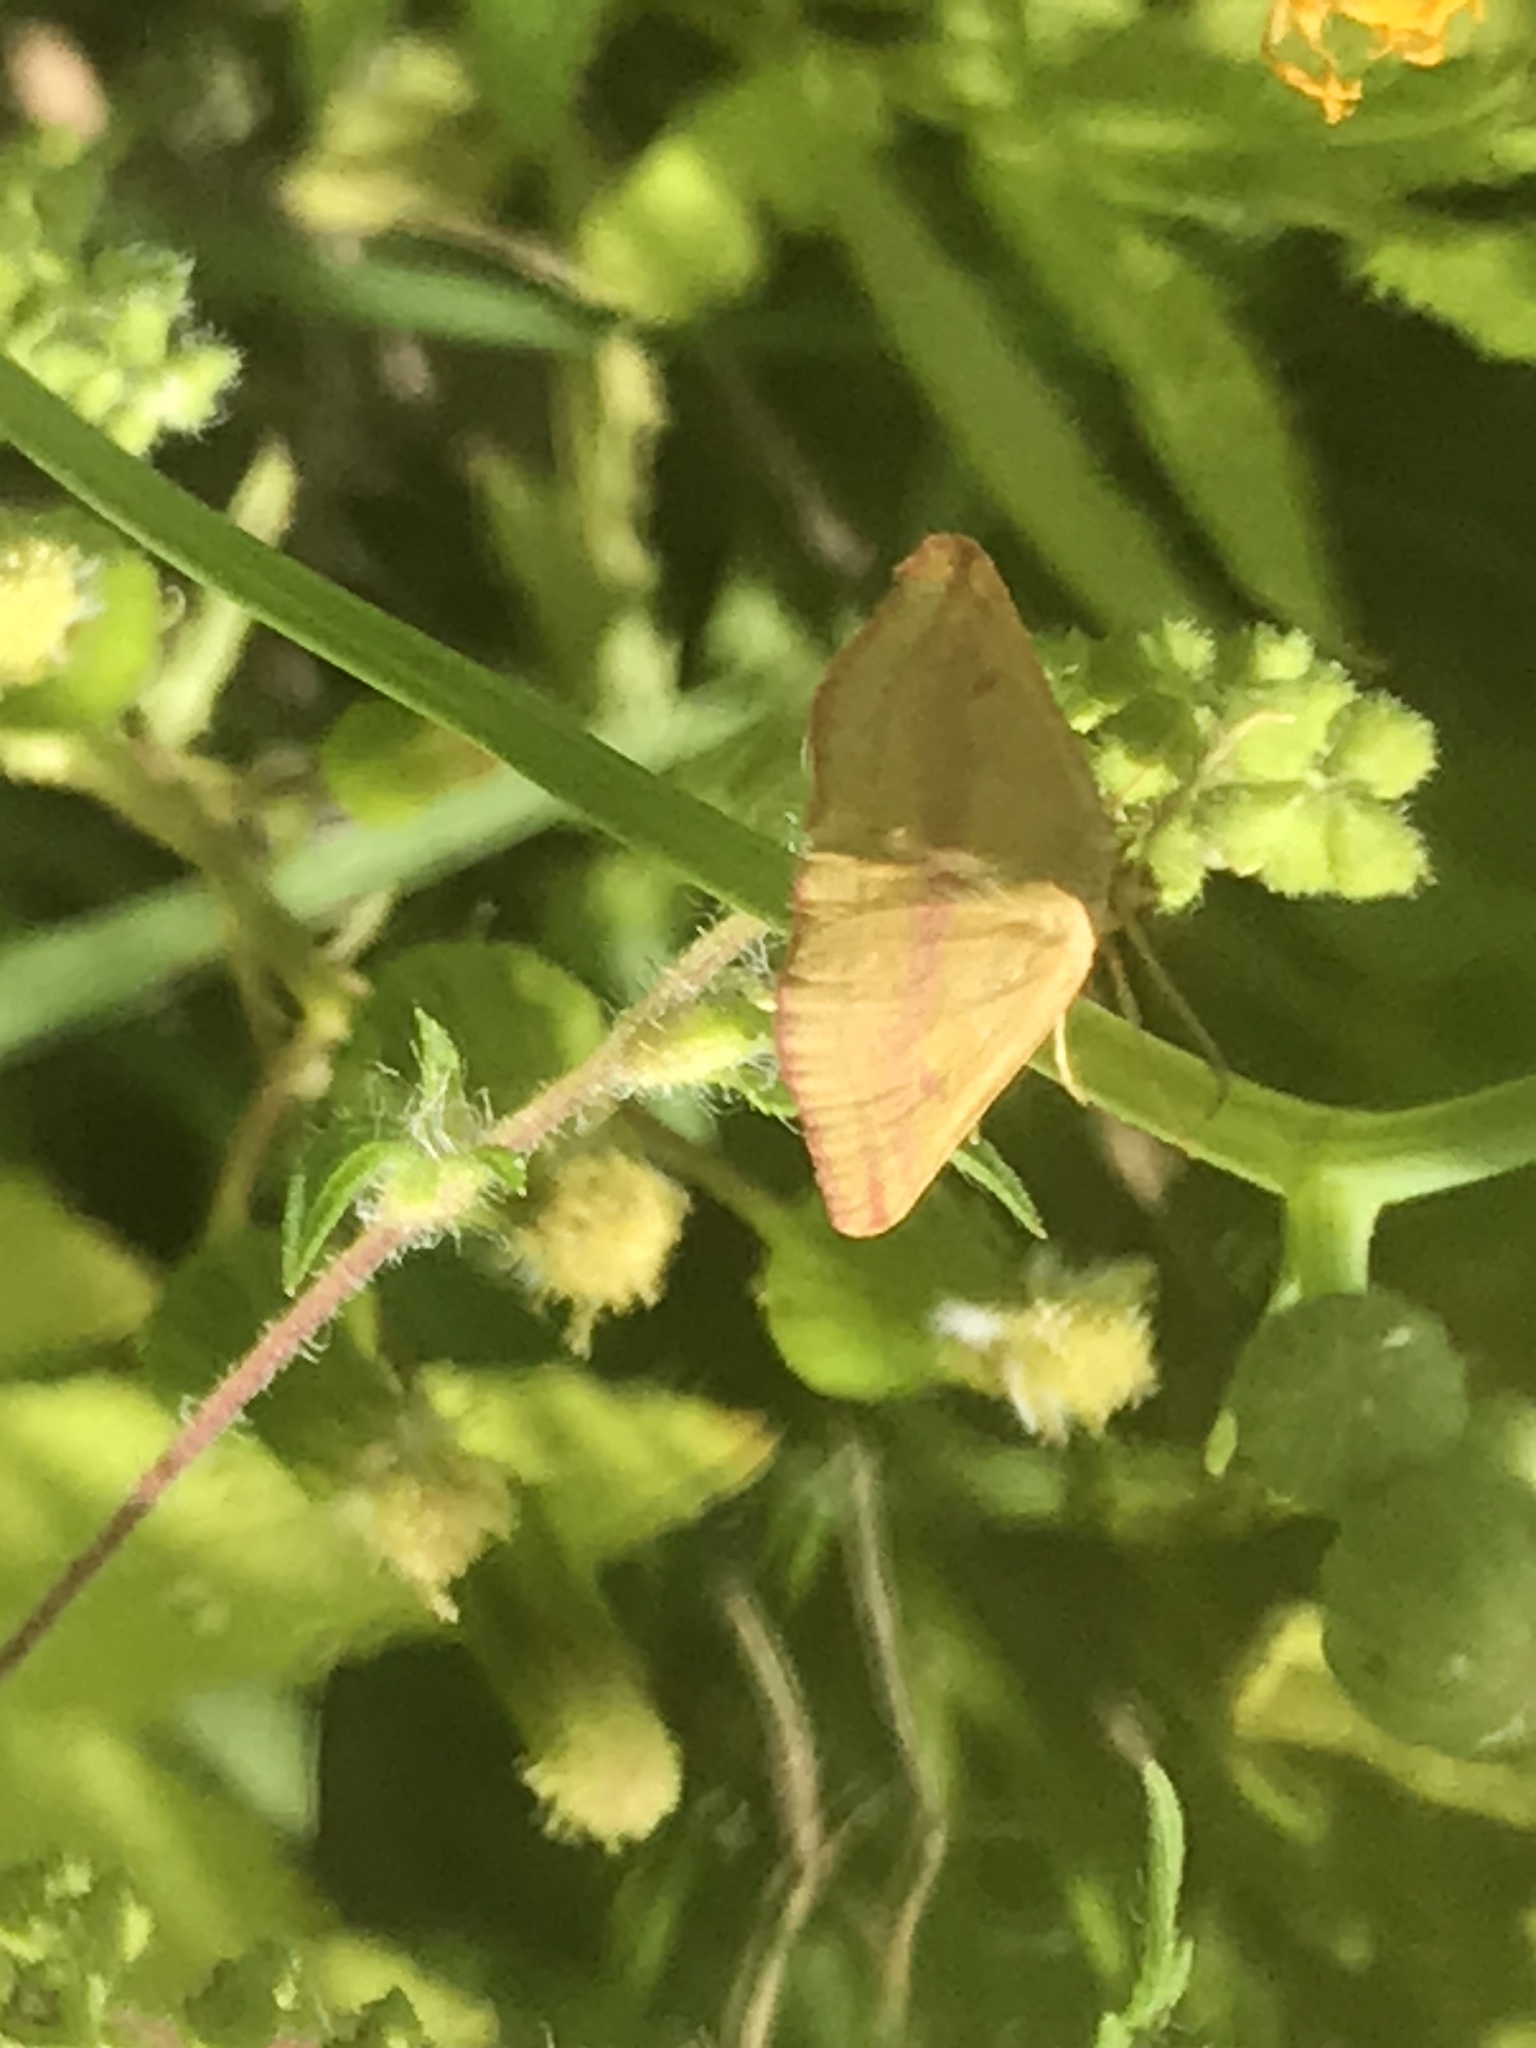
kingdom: Animalia
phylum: Arthropoda
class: Insecta
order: Lepidoptera
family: Geometridae
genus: Haematopis
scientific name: Haematopis grataria
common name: Chickweed geometer
